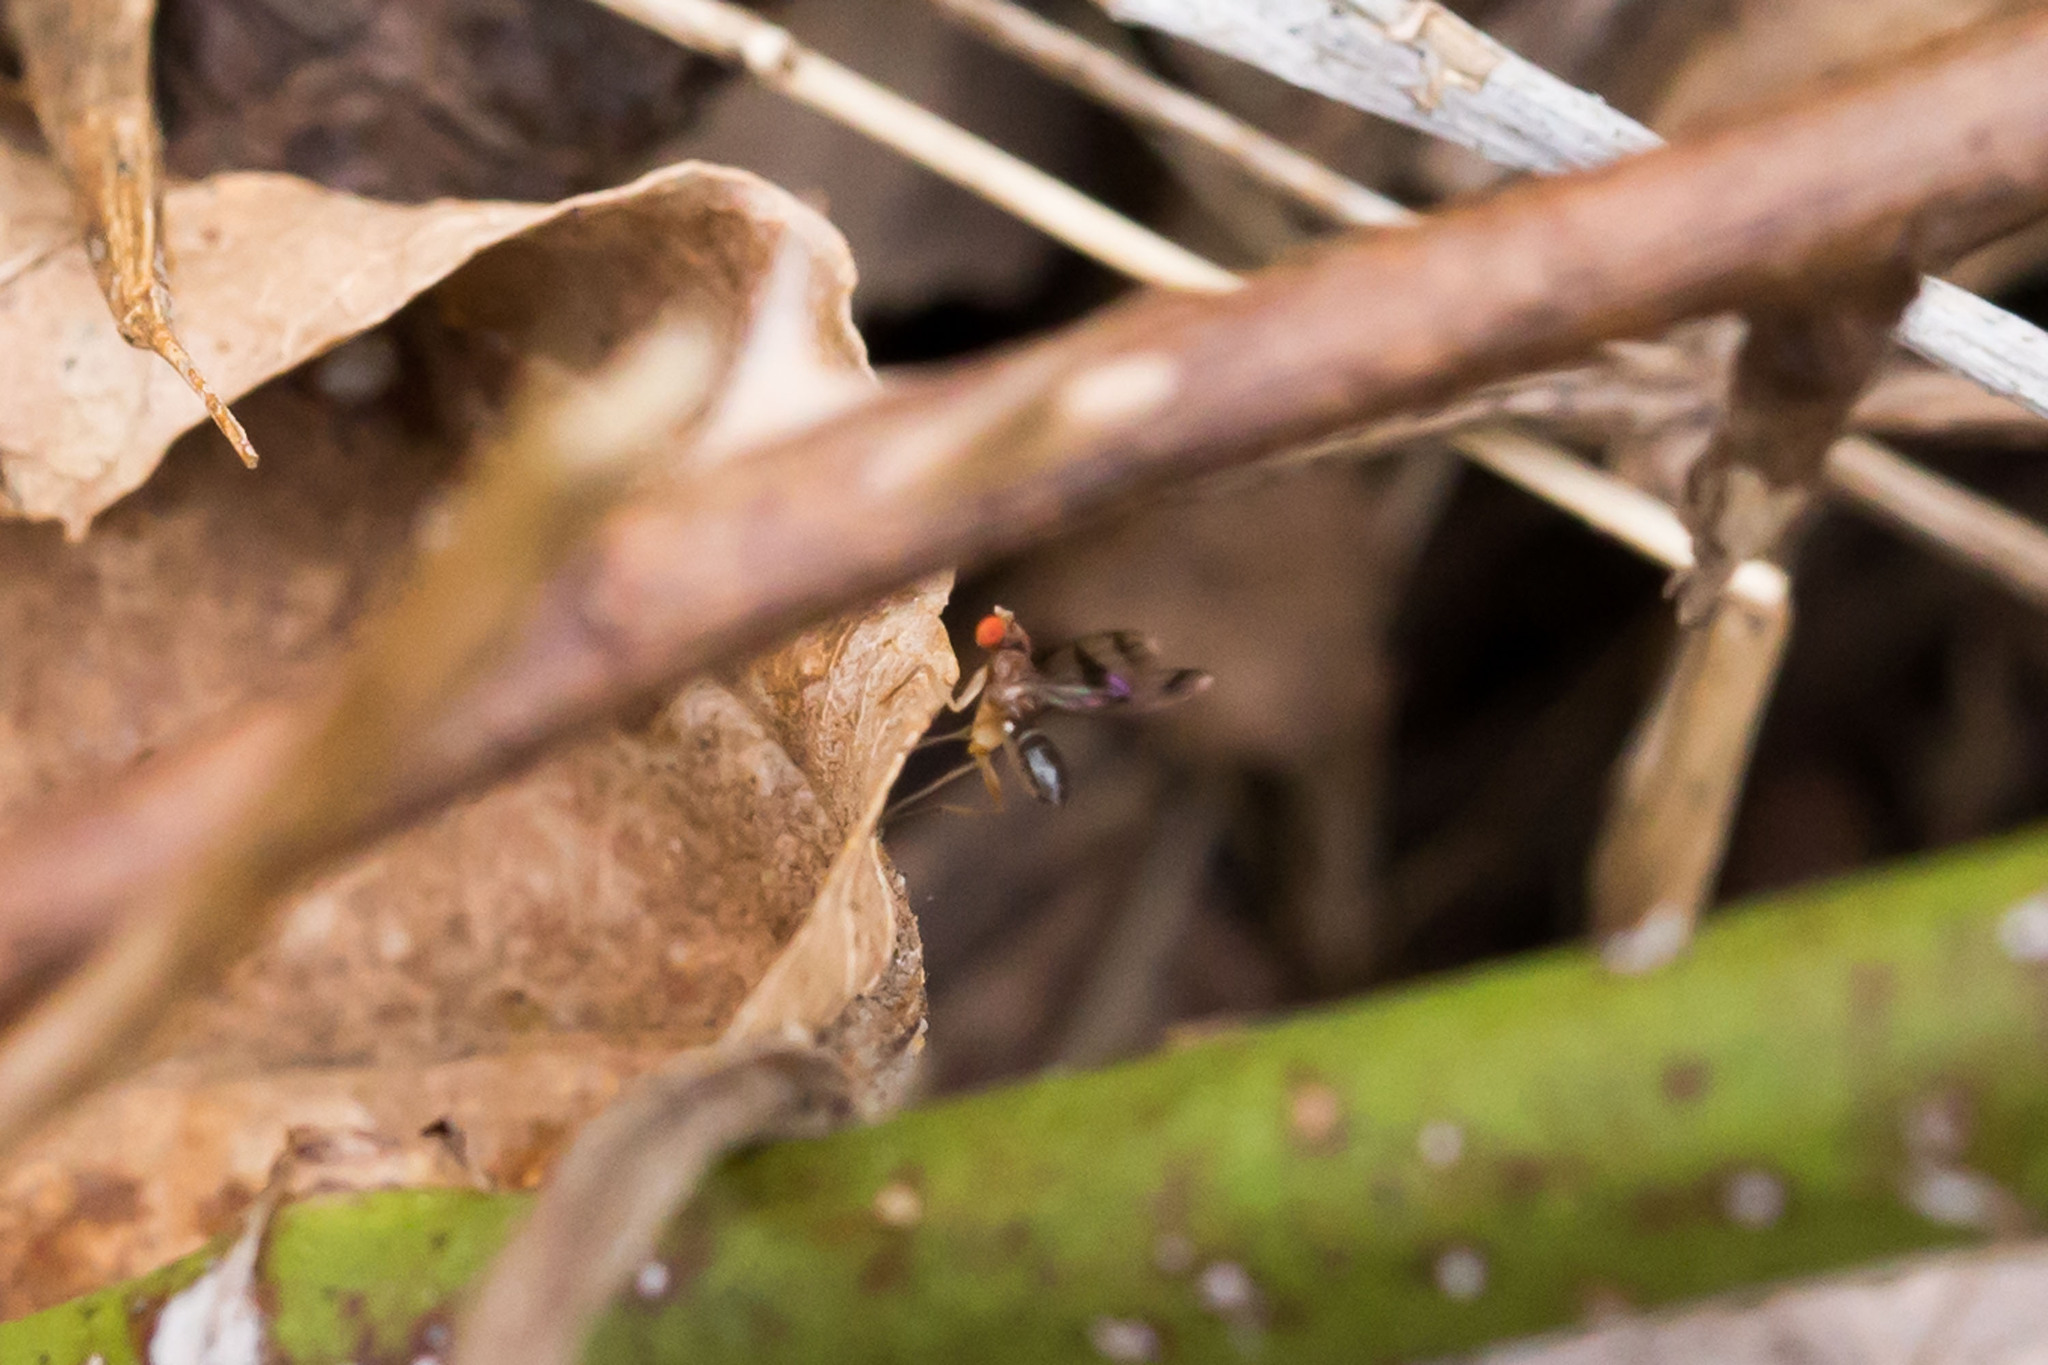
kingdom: Animalia
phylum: Arthropoda
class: Insecta
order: Diptera
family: Drosophilidae
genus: Chymomyza
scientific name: Chymomyza amoena
